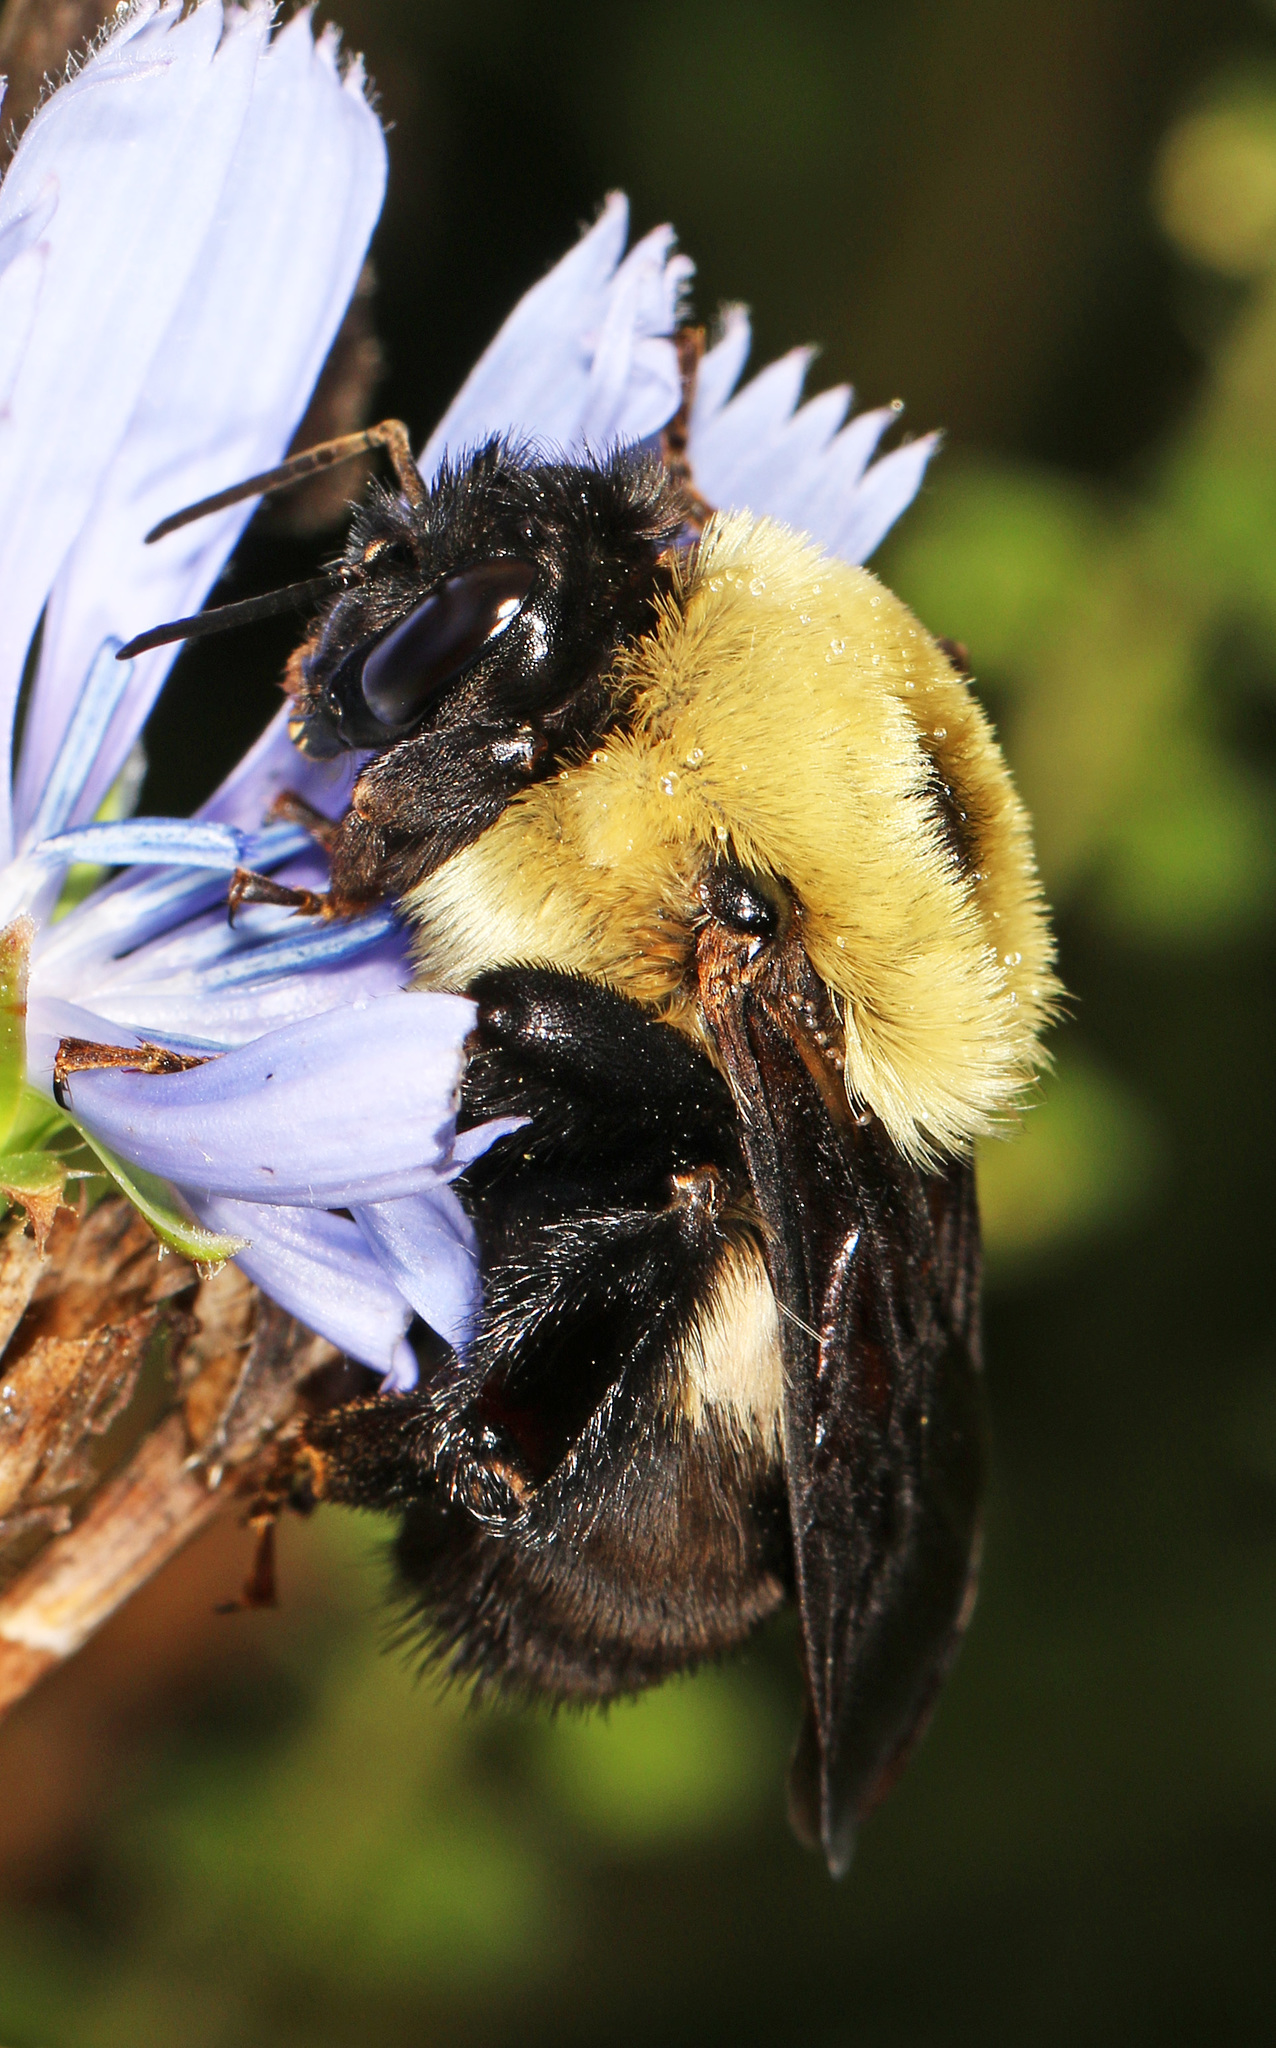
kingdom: Animalia
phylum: Arthropoda
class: Insecta
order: Hymenoptera
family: Apidae
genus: Bombus
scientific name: Bombus griseocollis
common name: Brown-belted bumble bee
